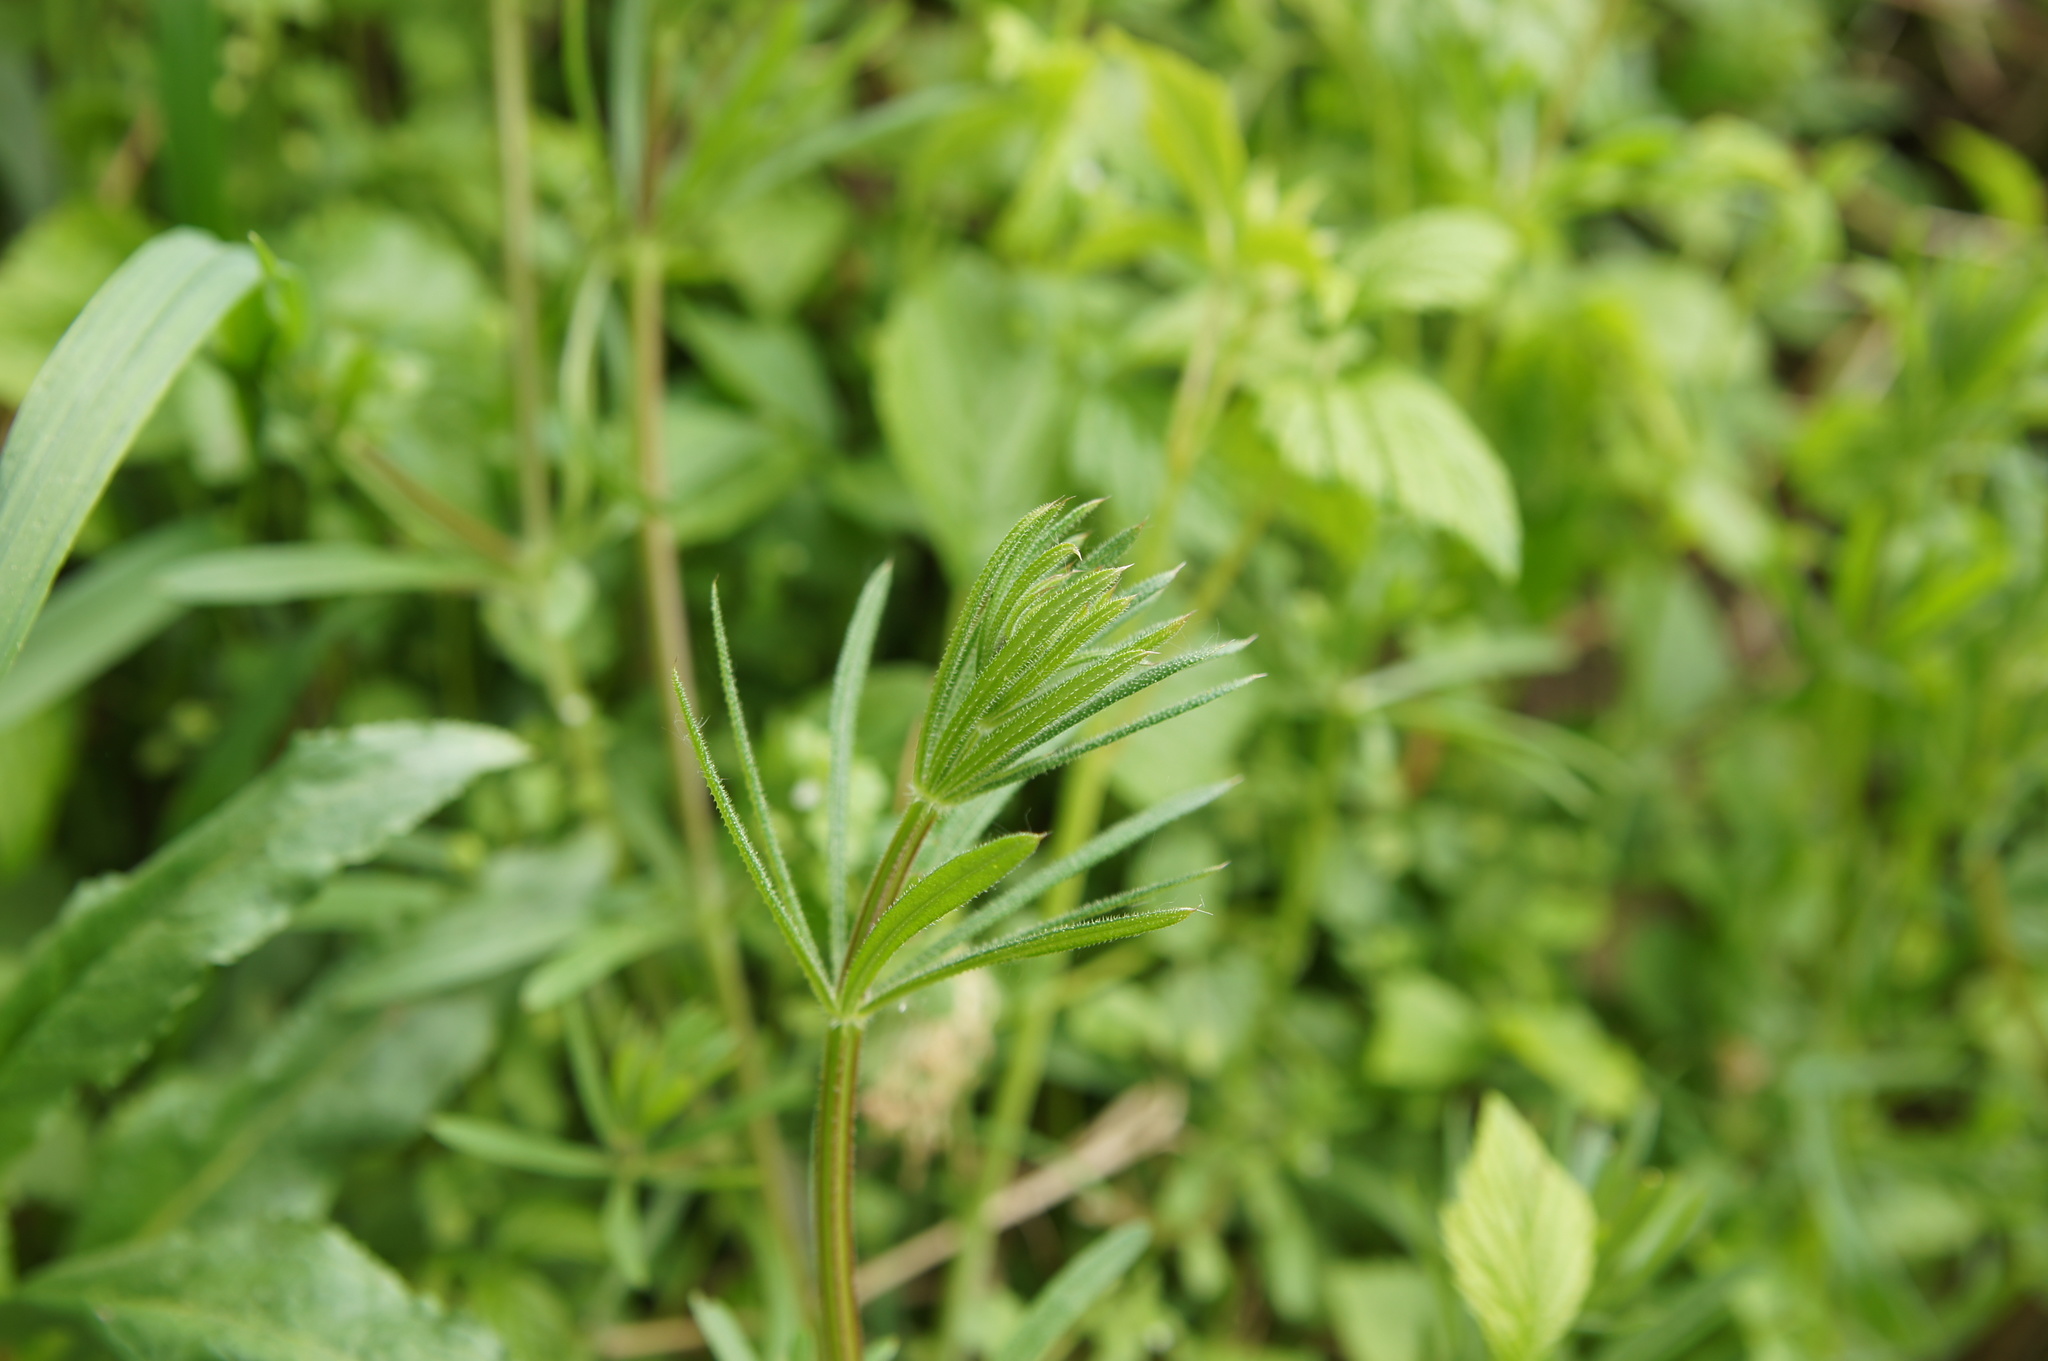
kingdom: Plantae
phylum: Tracheophyta
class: Magnoliopsida
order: Gentianales
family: Rubiaceae
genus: Galium
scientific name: Galium aparine
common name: Cleavers
